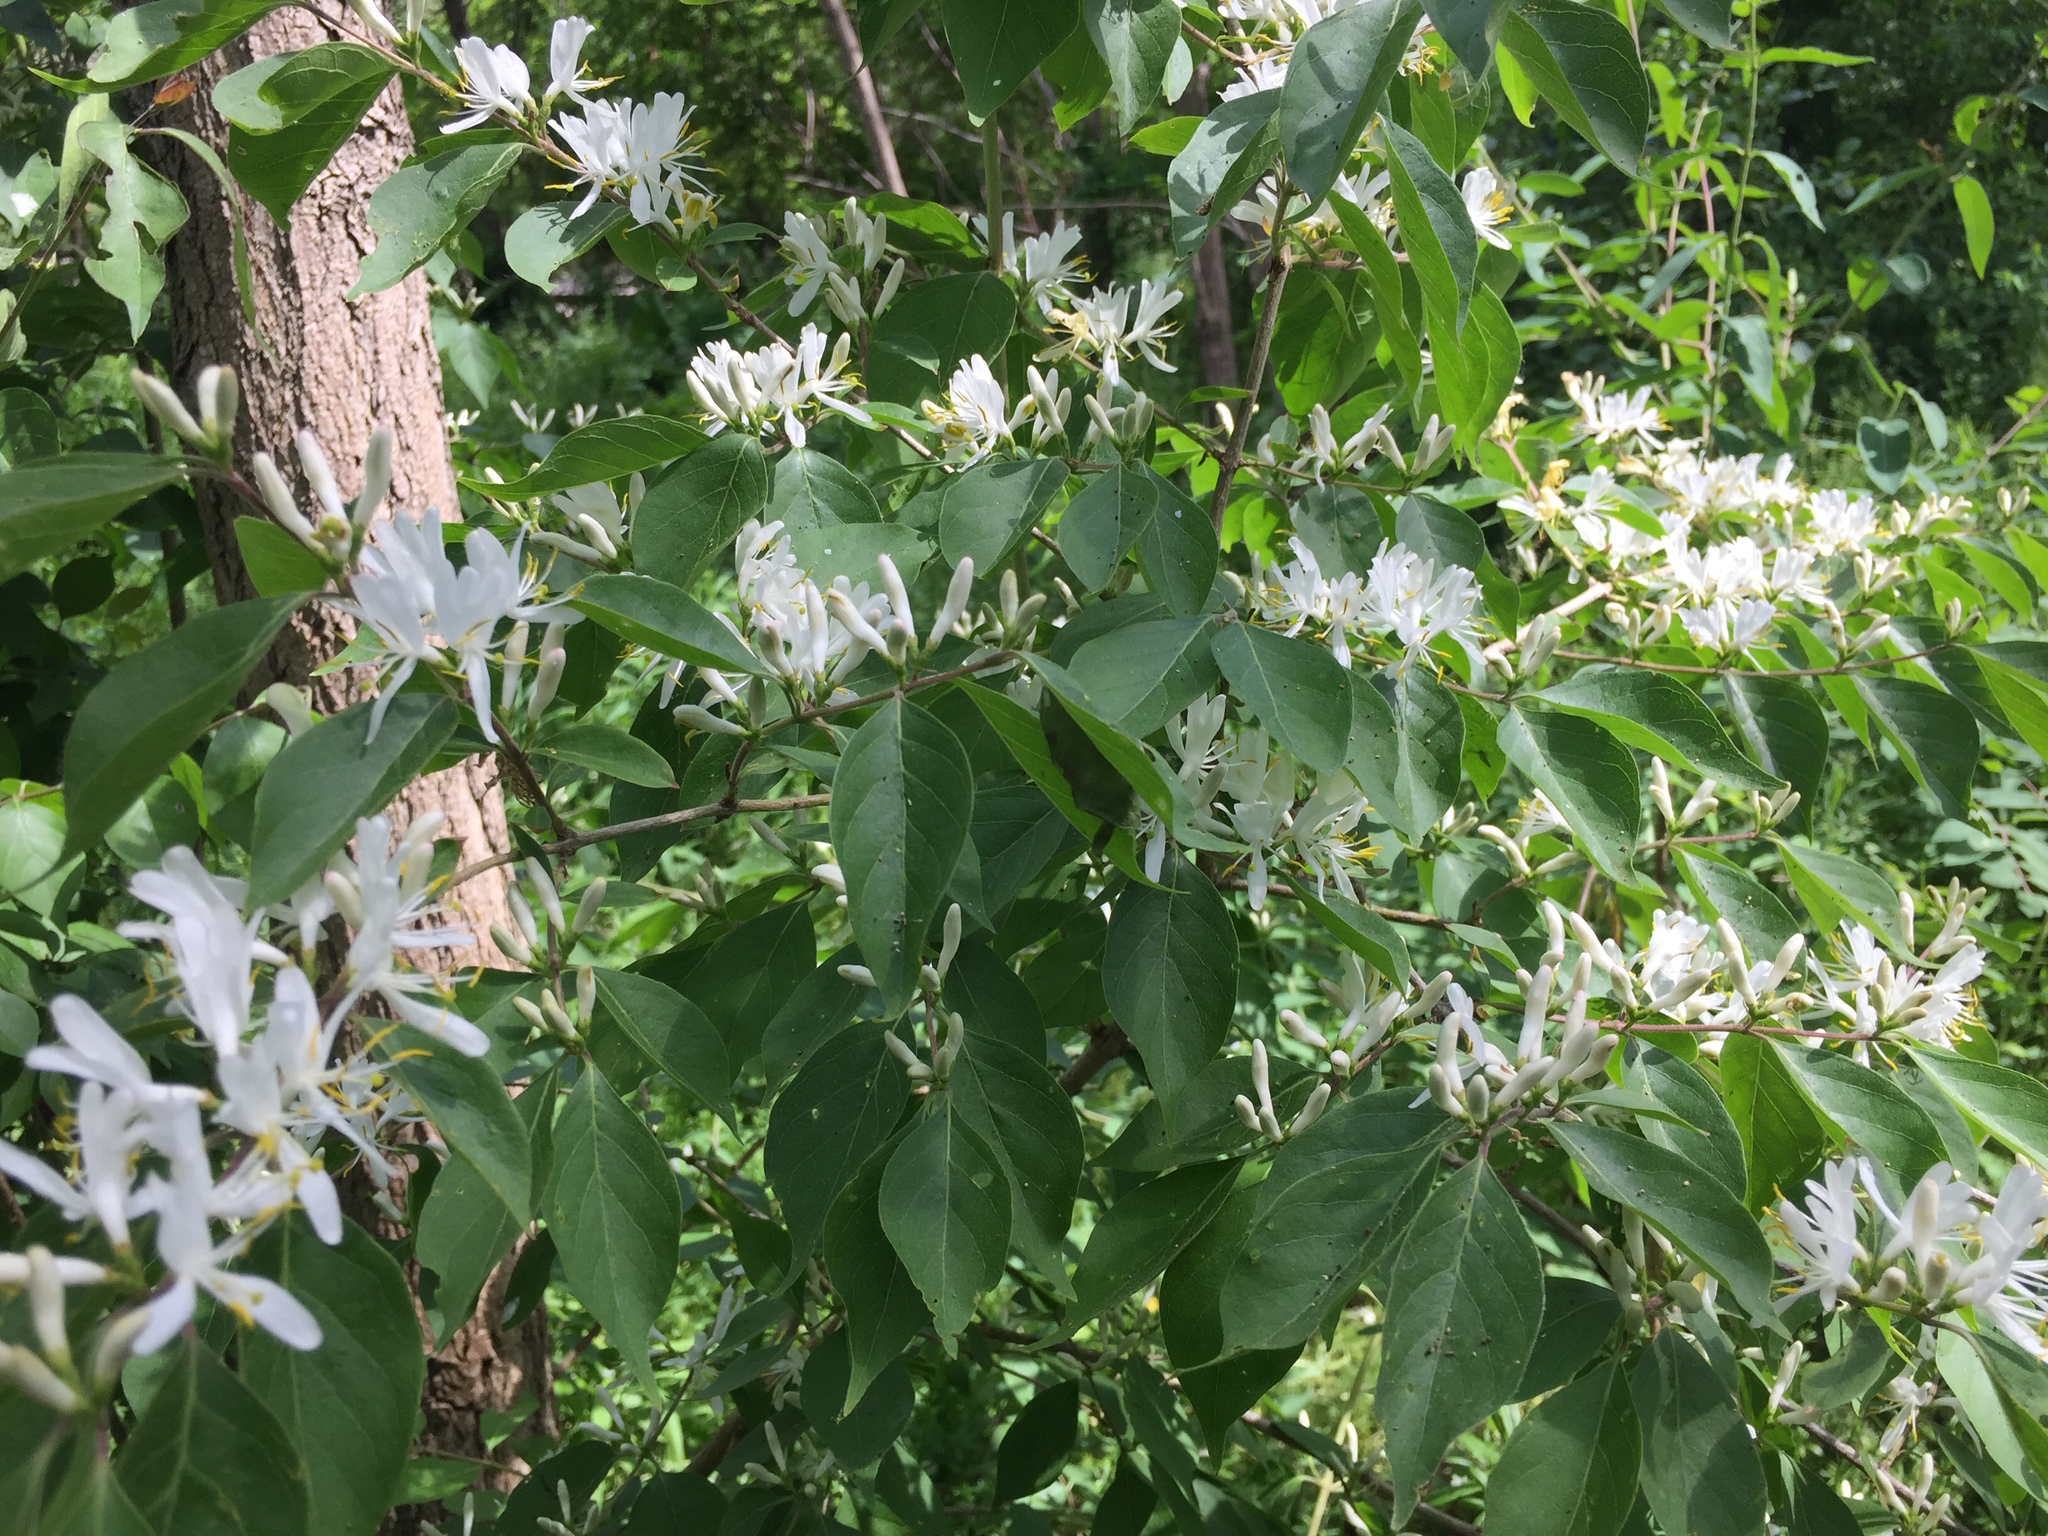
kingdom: Plantae
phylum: Tracheophyta
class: Magnoliopsida
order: Dipsacales
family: Caprifoliaceae
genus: Lonicera
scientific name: Lonicera maackii
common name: Amur honeysuckle
